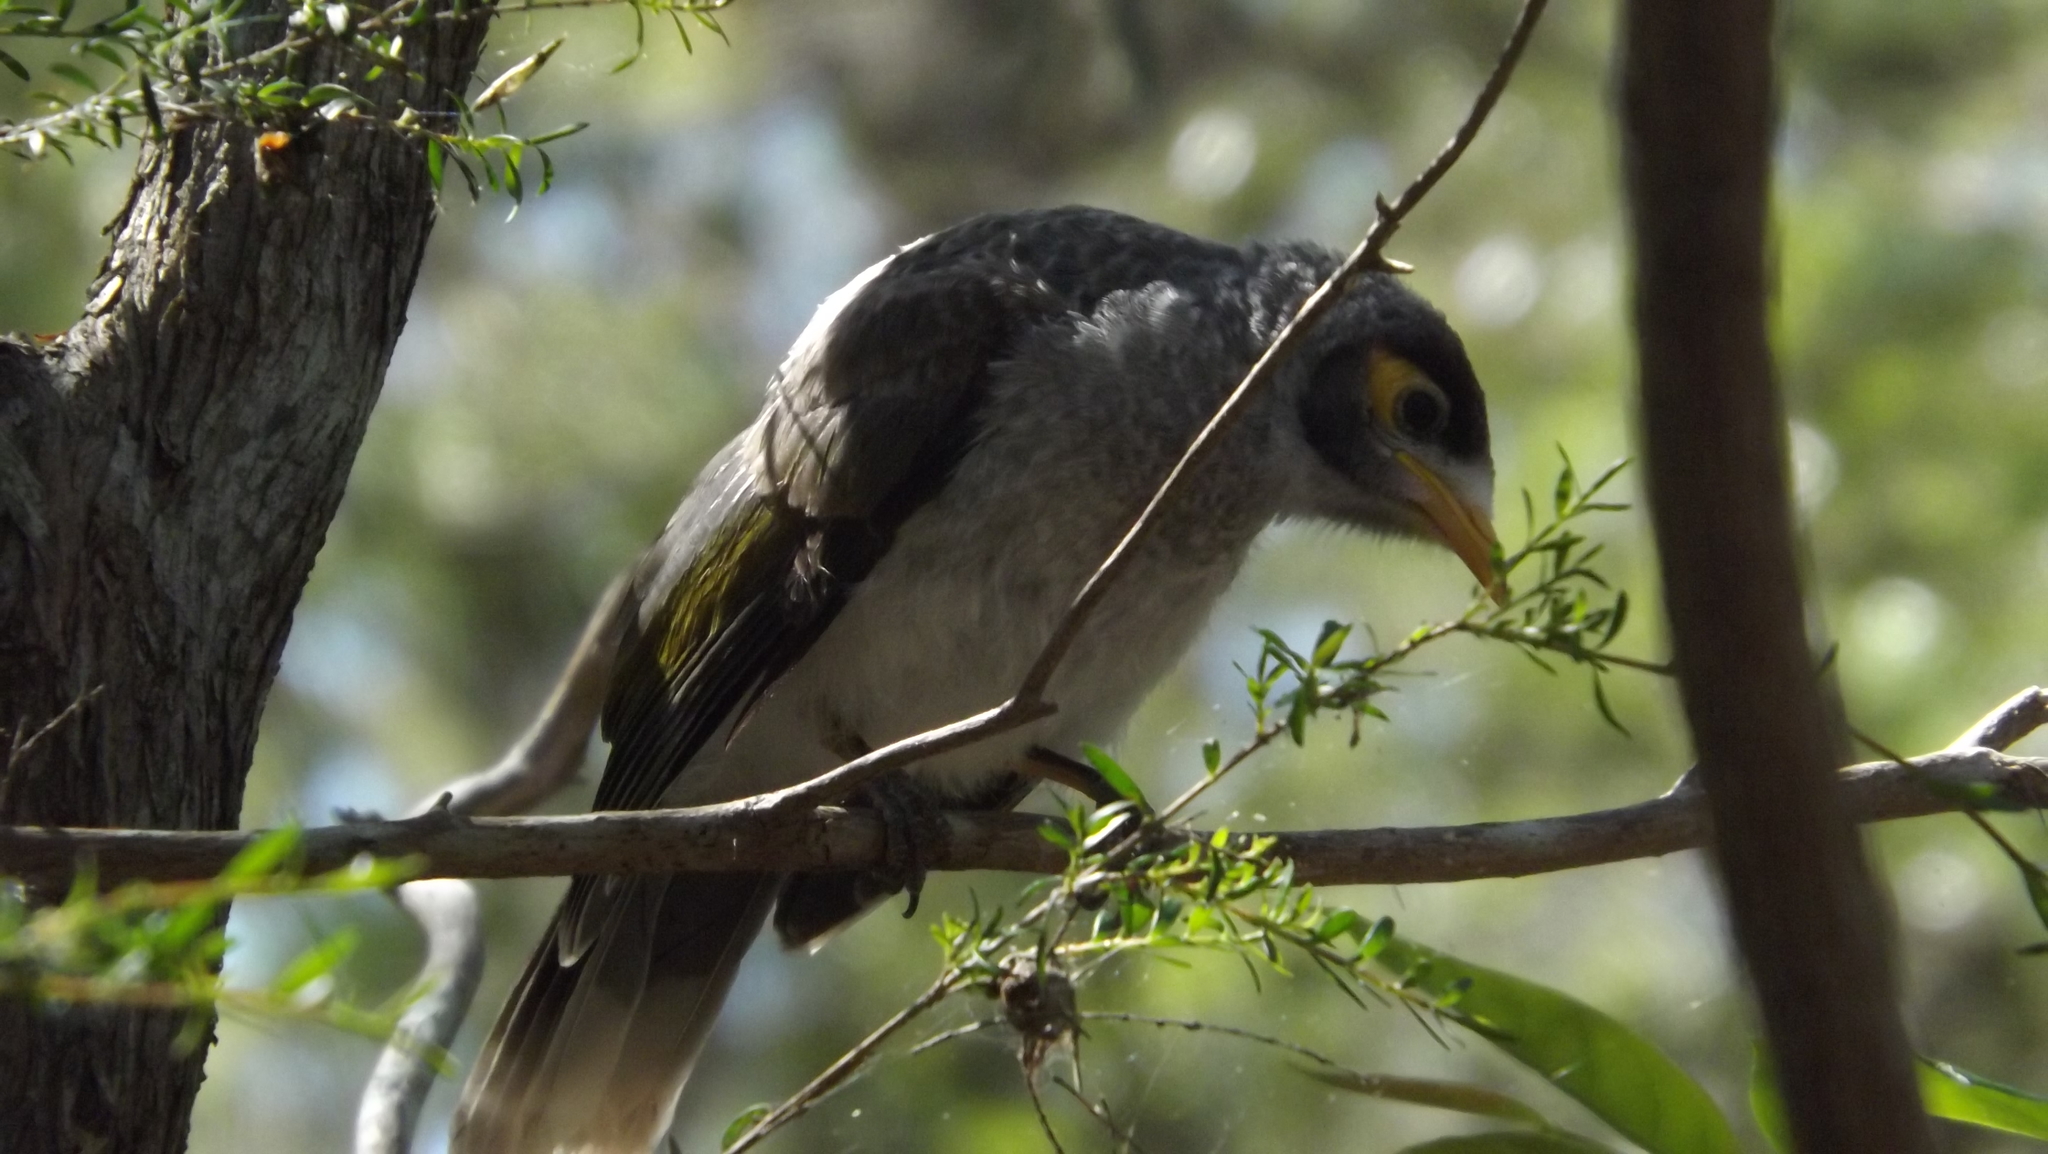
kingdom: Animalia
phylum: Chordata
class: Aves
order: Passeriformes
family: Meliphagidae
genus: Manorina
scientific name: Manorina melanocephala
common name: Noisy miner
